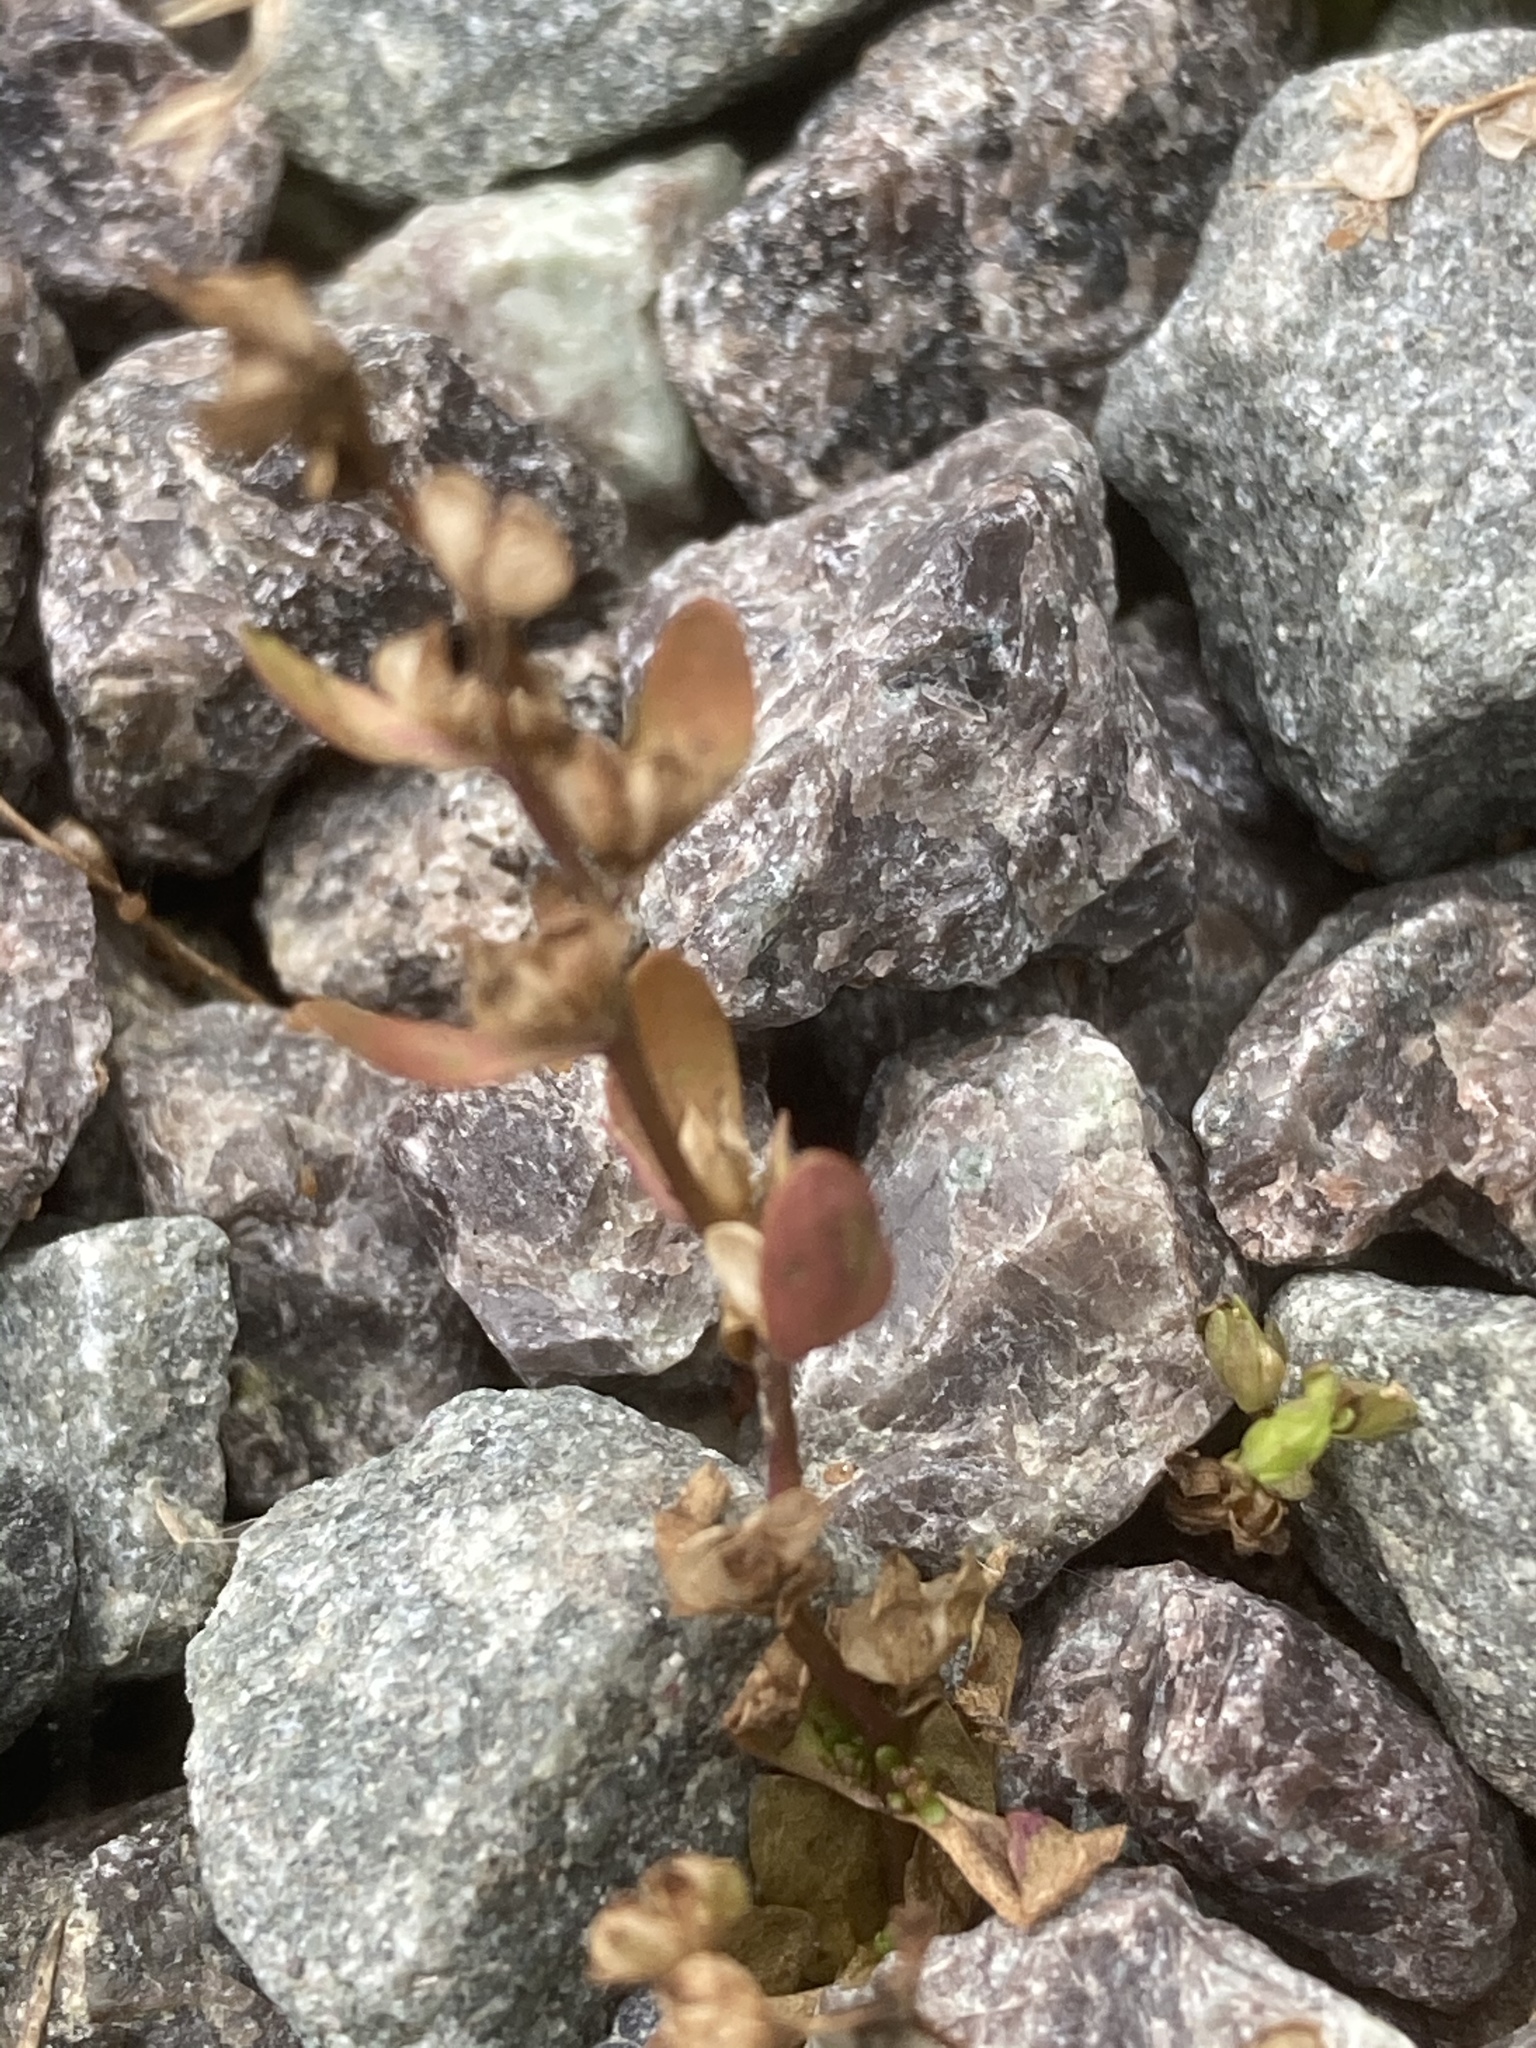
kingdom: Plantae
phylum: Tracheophyta
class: Magnoliopsida
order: Lamiales
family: Plantaginaceae
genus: Veronica
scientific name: Veronica peregrina
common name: Neckweed
